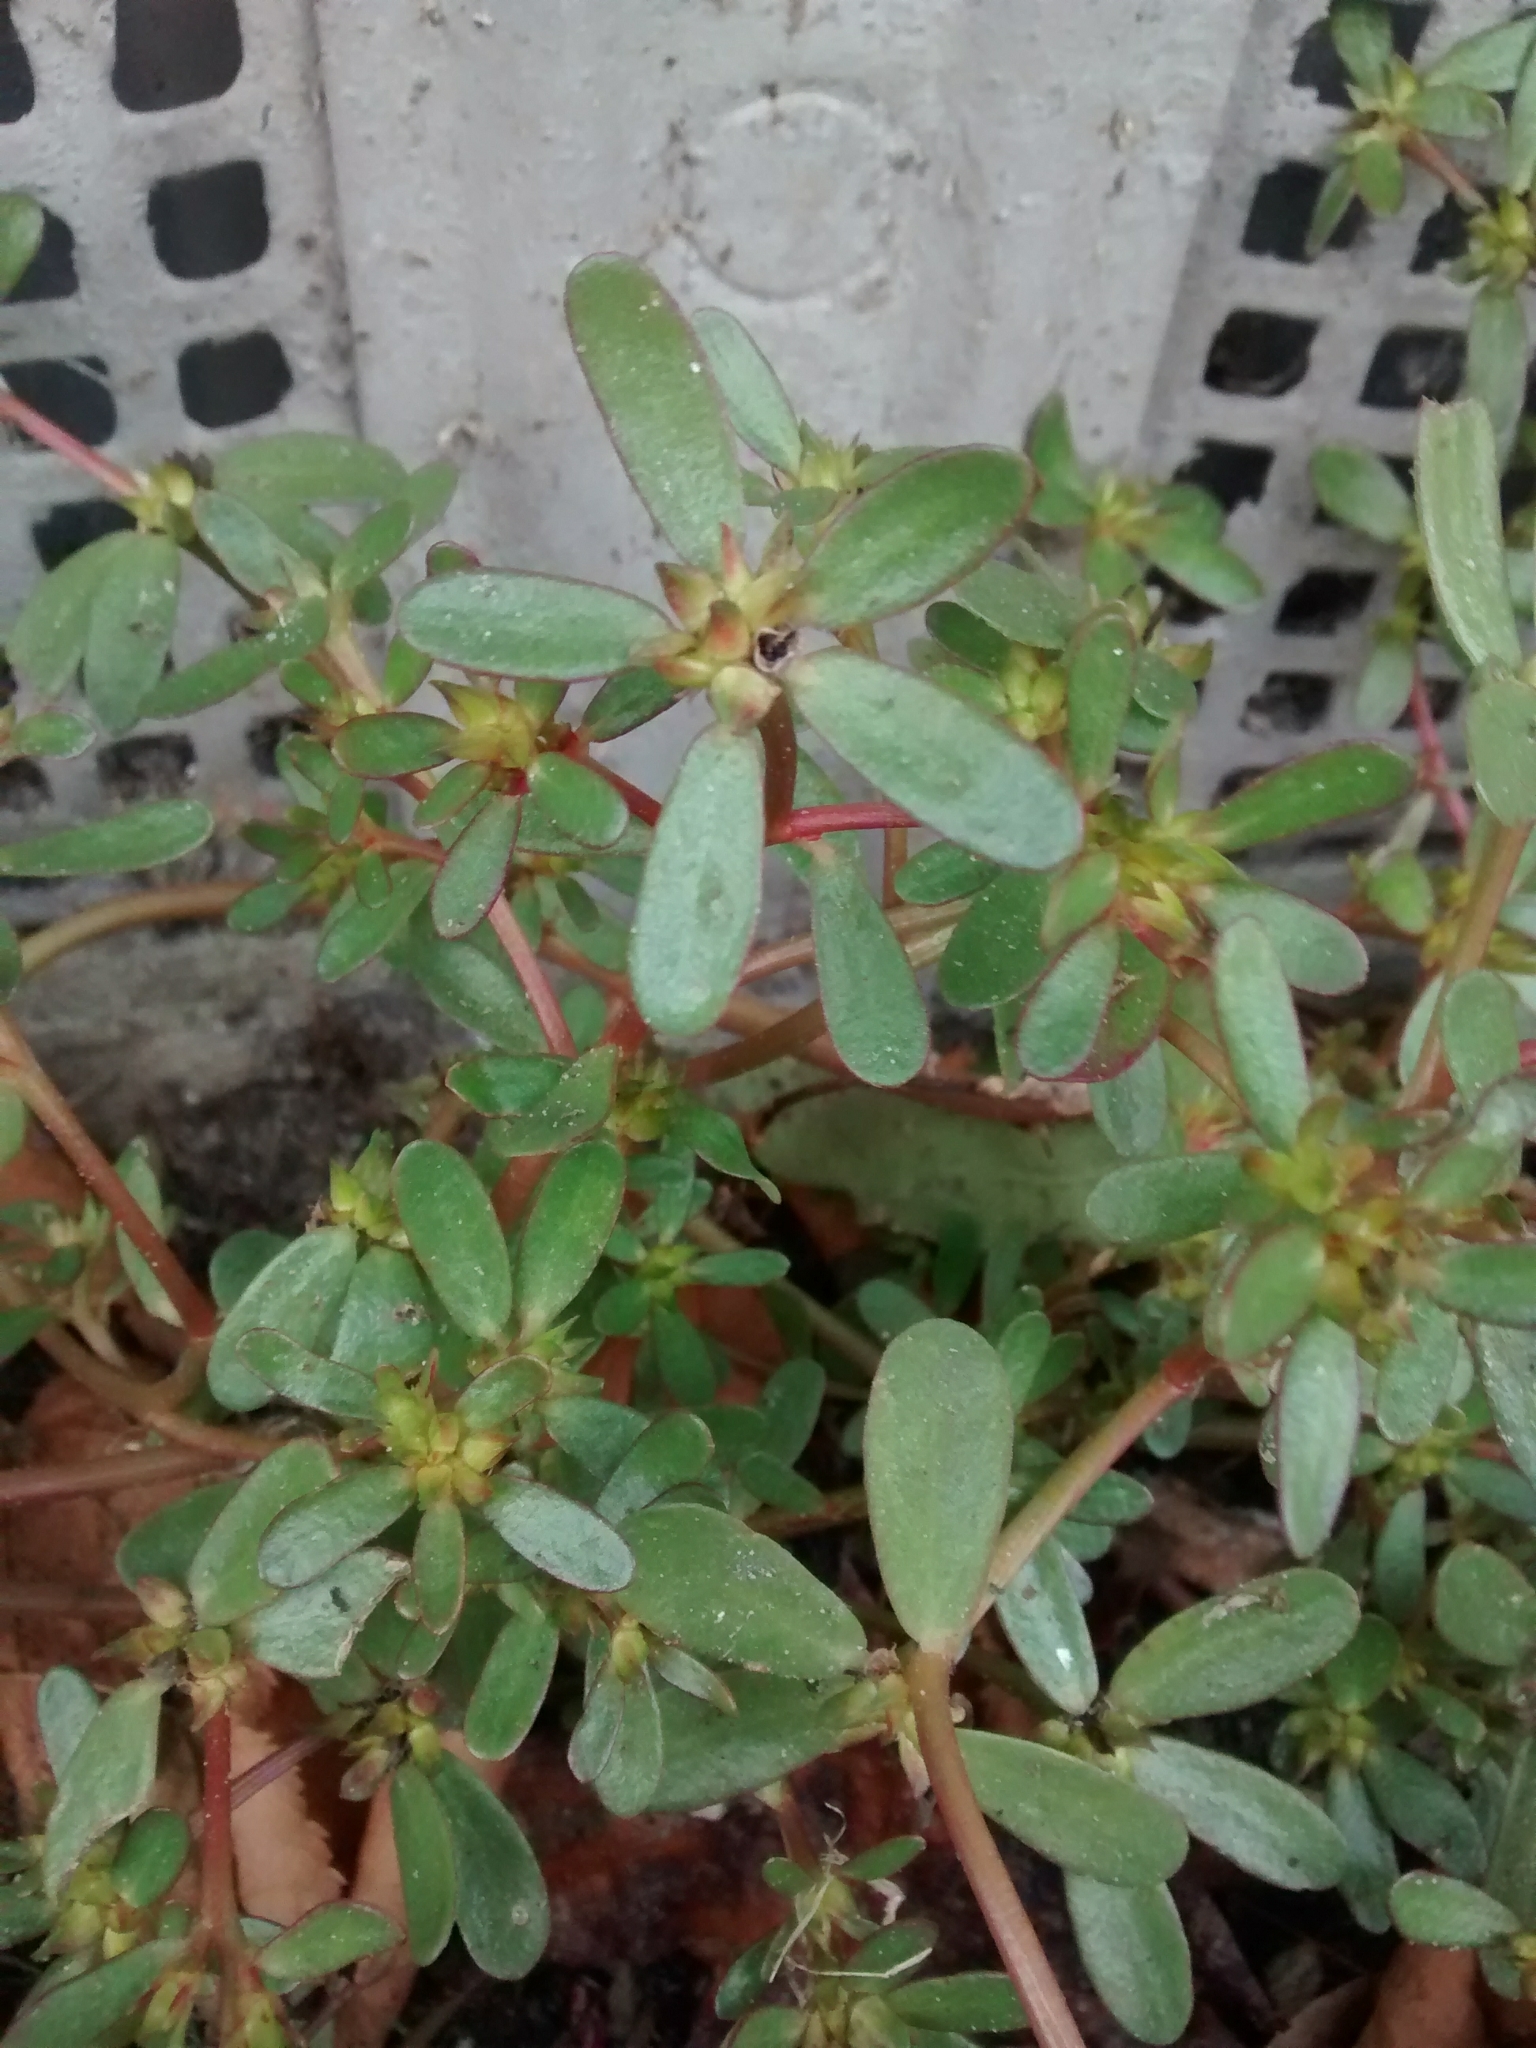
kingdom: Plantae
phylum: Tracheophyta
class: Magnoliopsida
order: Caryophyllales
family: Portulacaceae
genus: Portulaca
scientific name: Portulaca oleracea
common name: Common purslane
